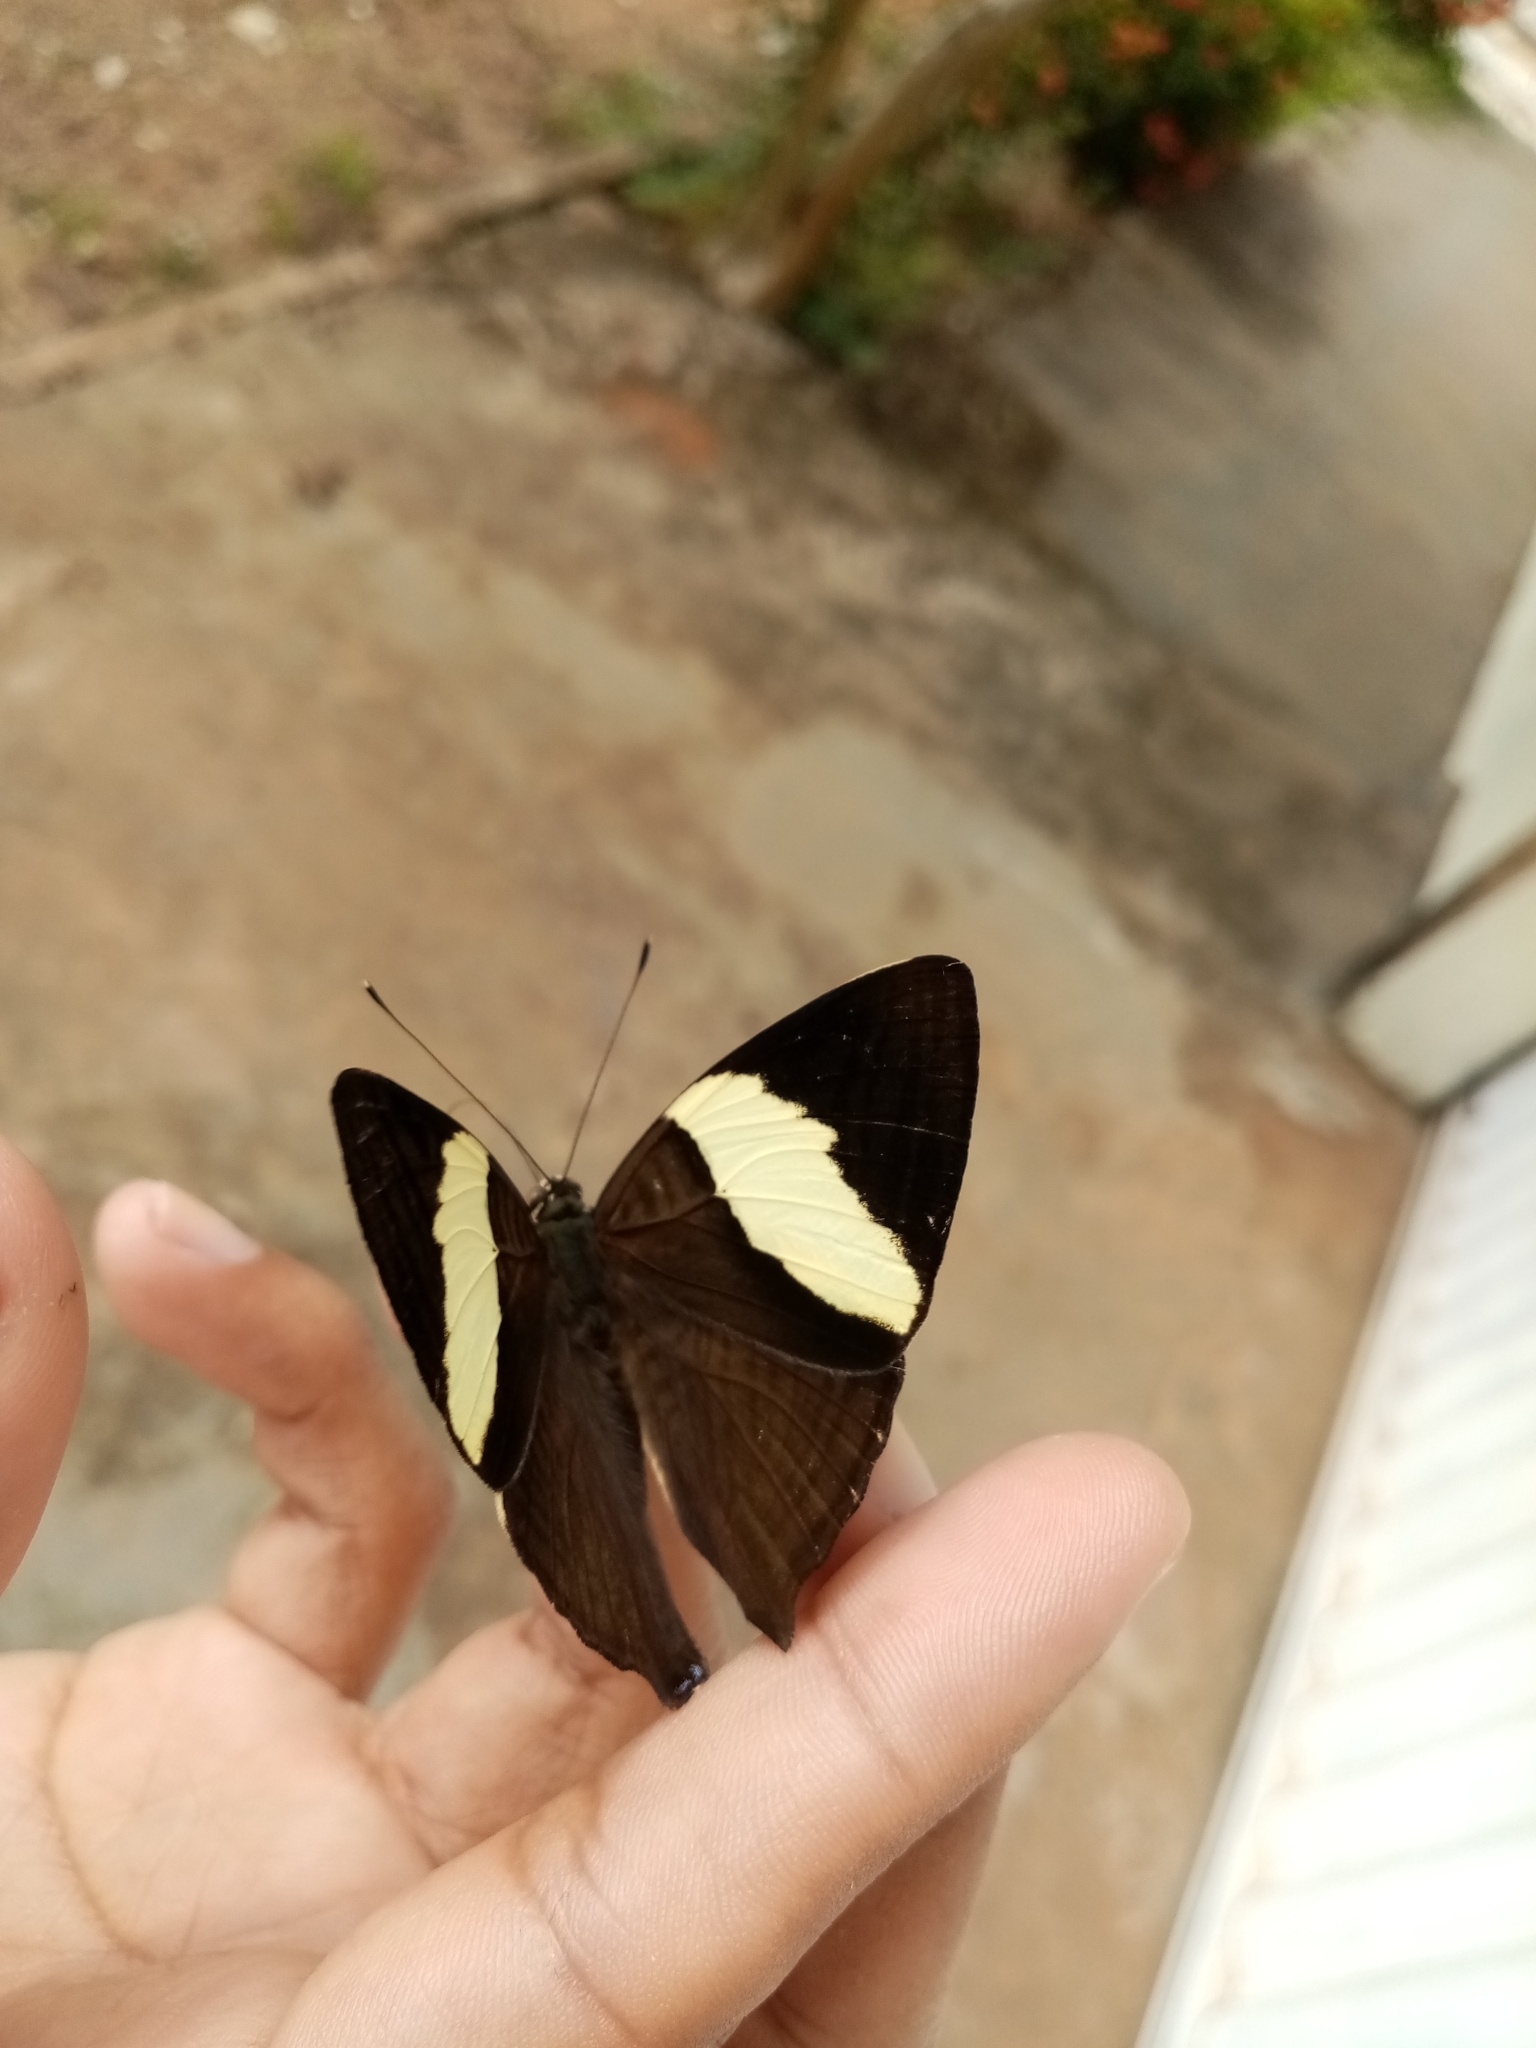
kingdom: Animalia
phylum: Arthropoda
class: Insecta
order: Lepidoptera
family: Nymphalidae
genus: Colobura
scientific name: Colobura dirce
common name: Dirce beauty
